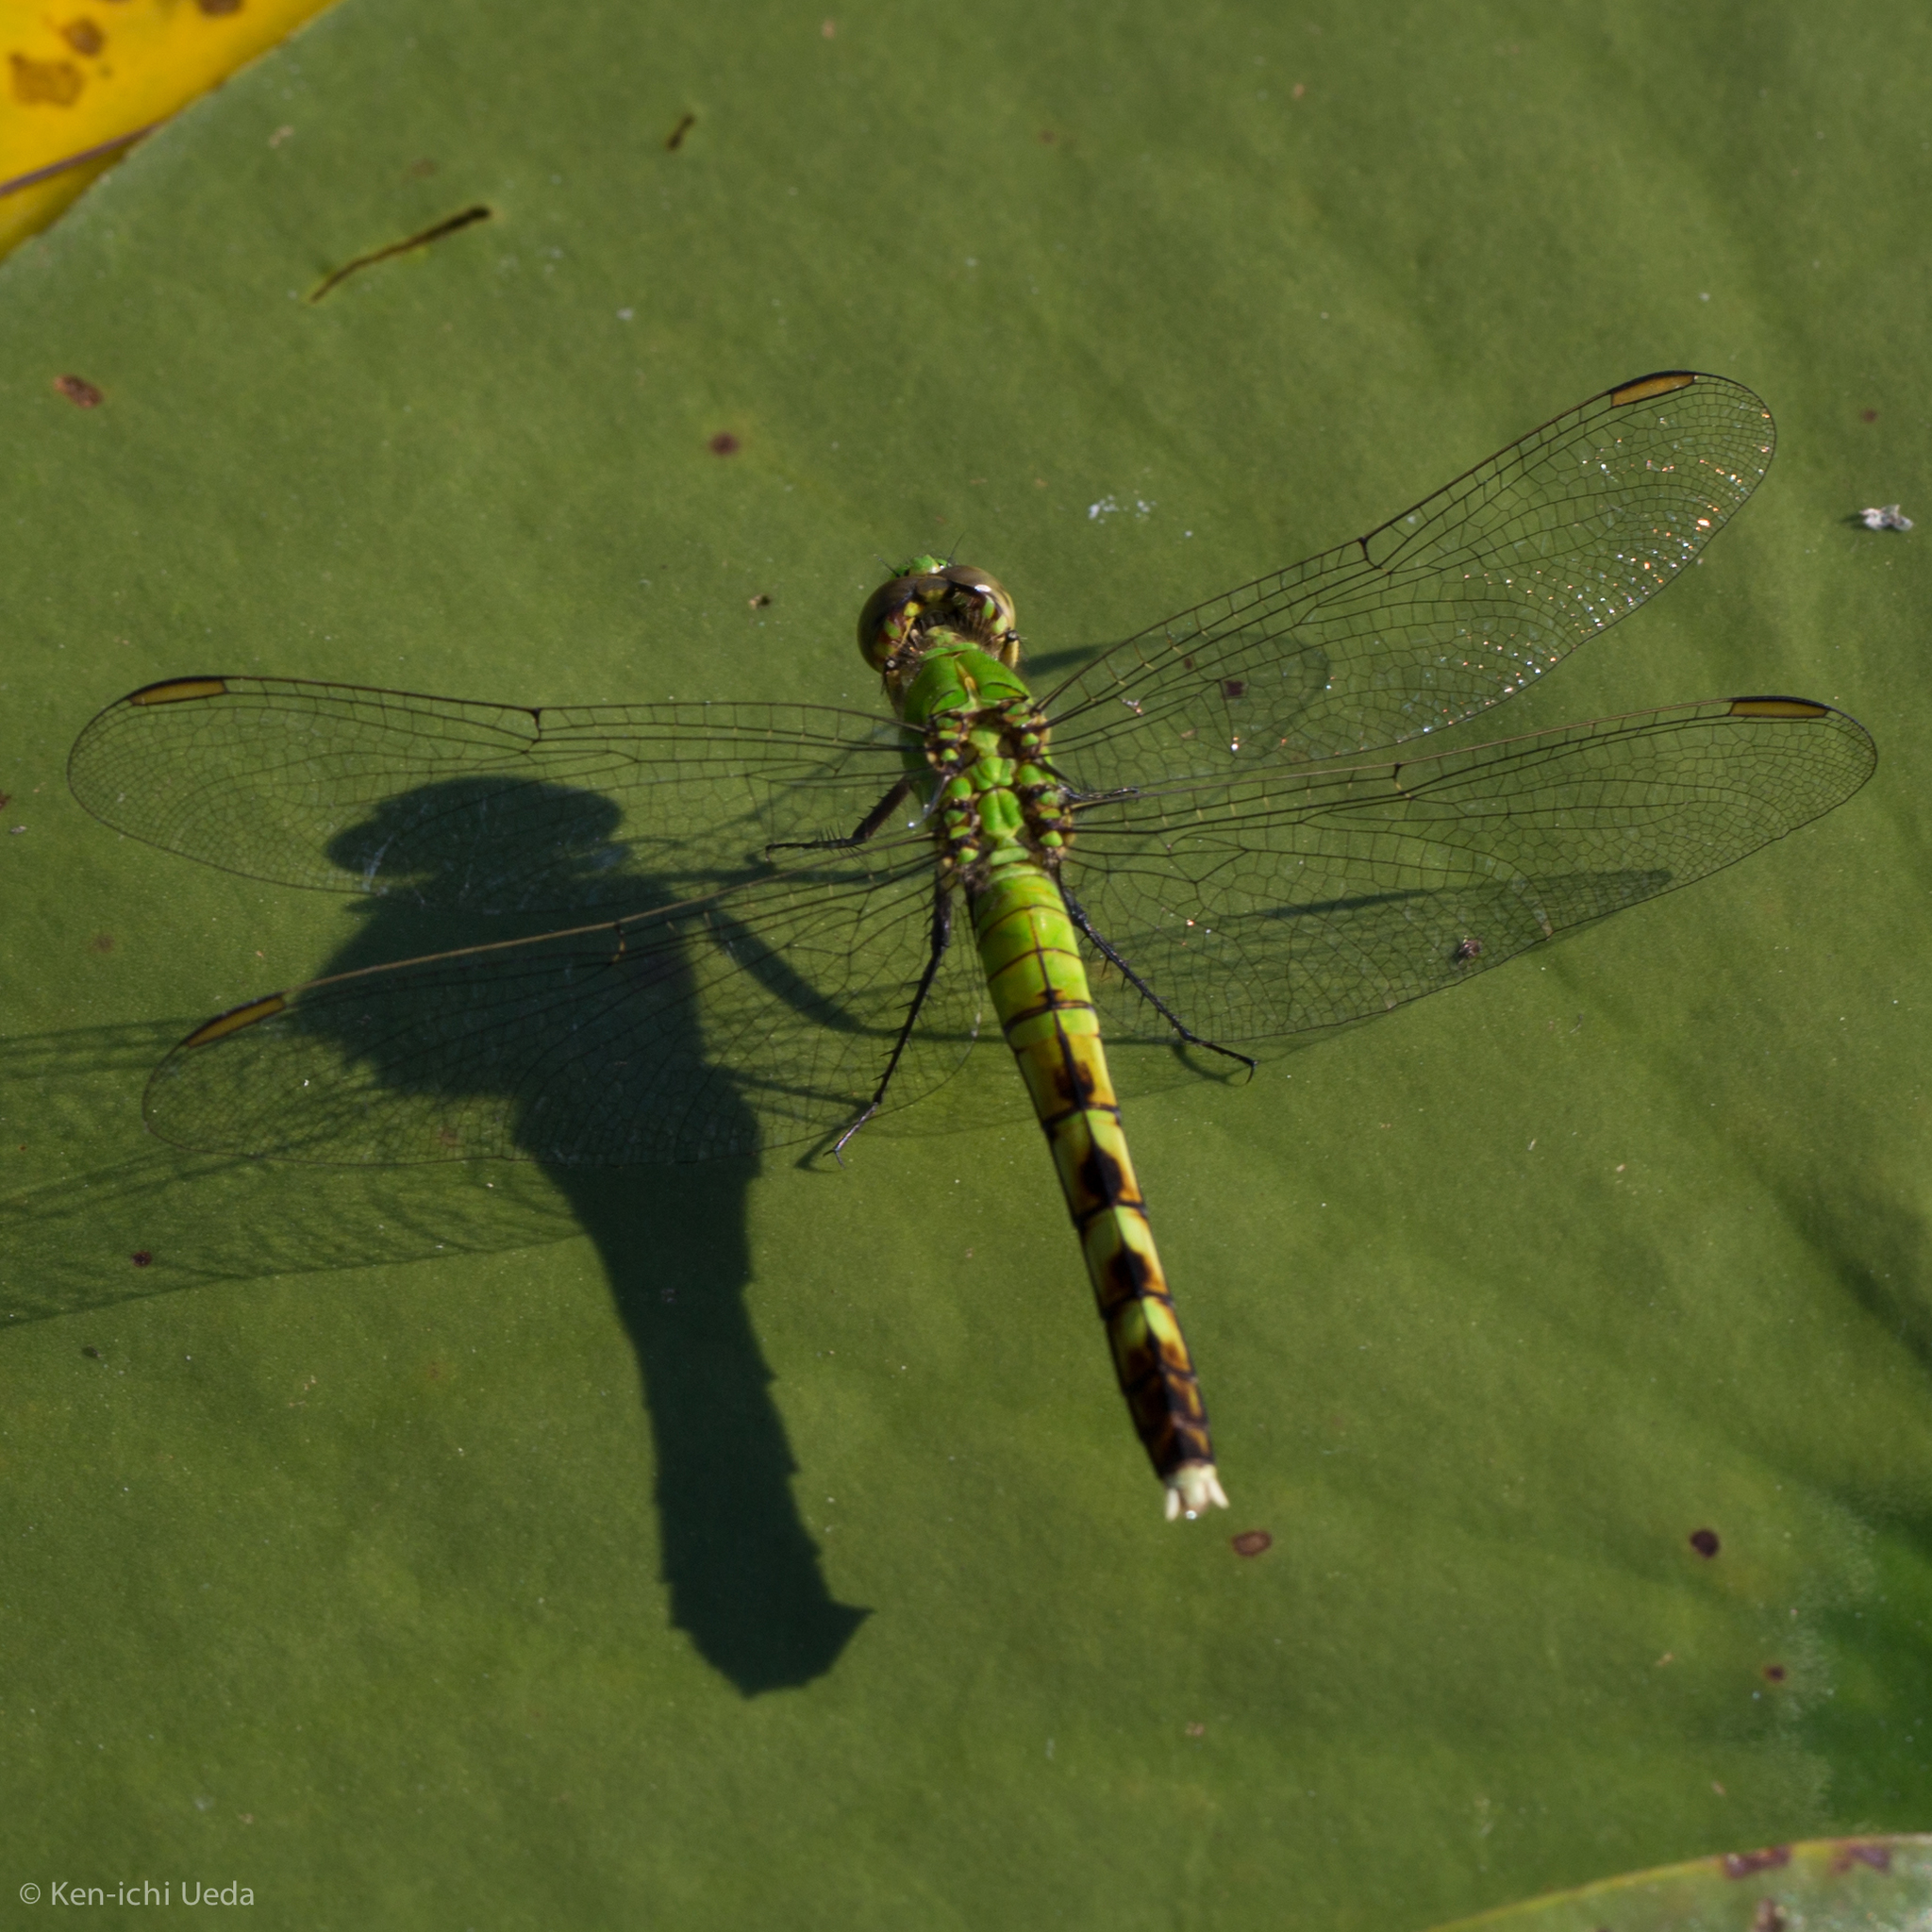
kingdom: Animalia
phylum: Arthropoda
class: Insecta
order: Odonata
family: Libellulidae
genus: Erythemis
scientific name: Erythemis simplicicollis
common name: Eastern pondhawk
